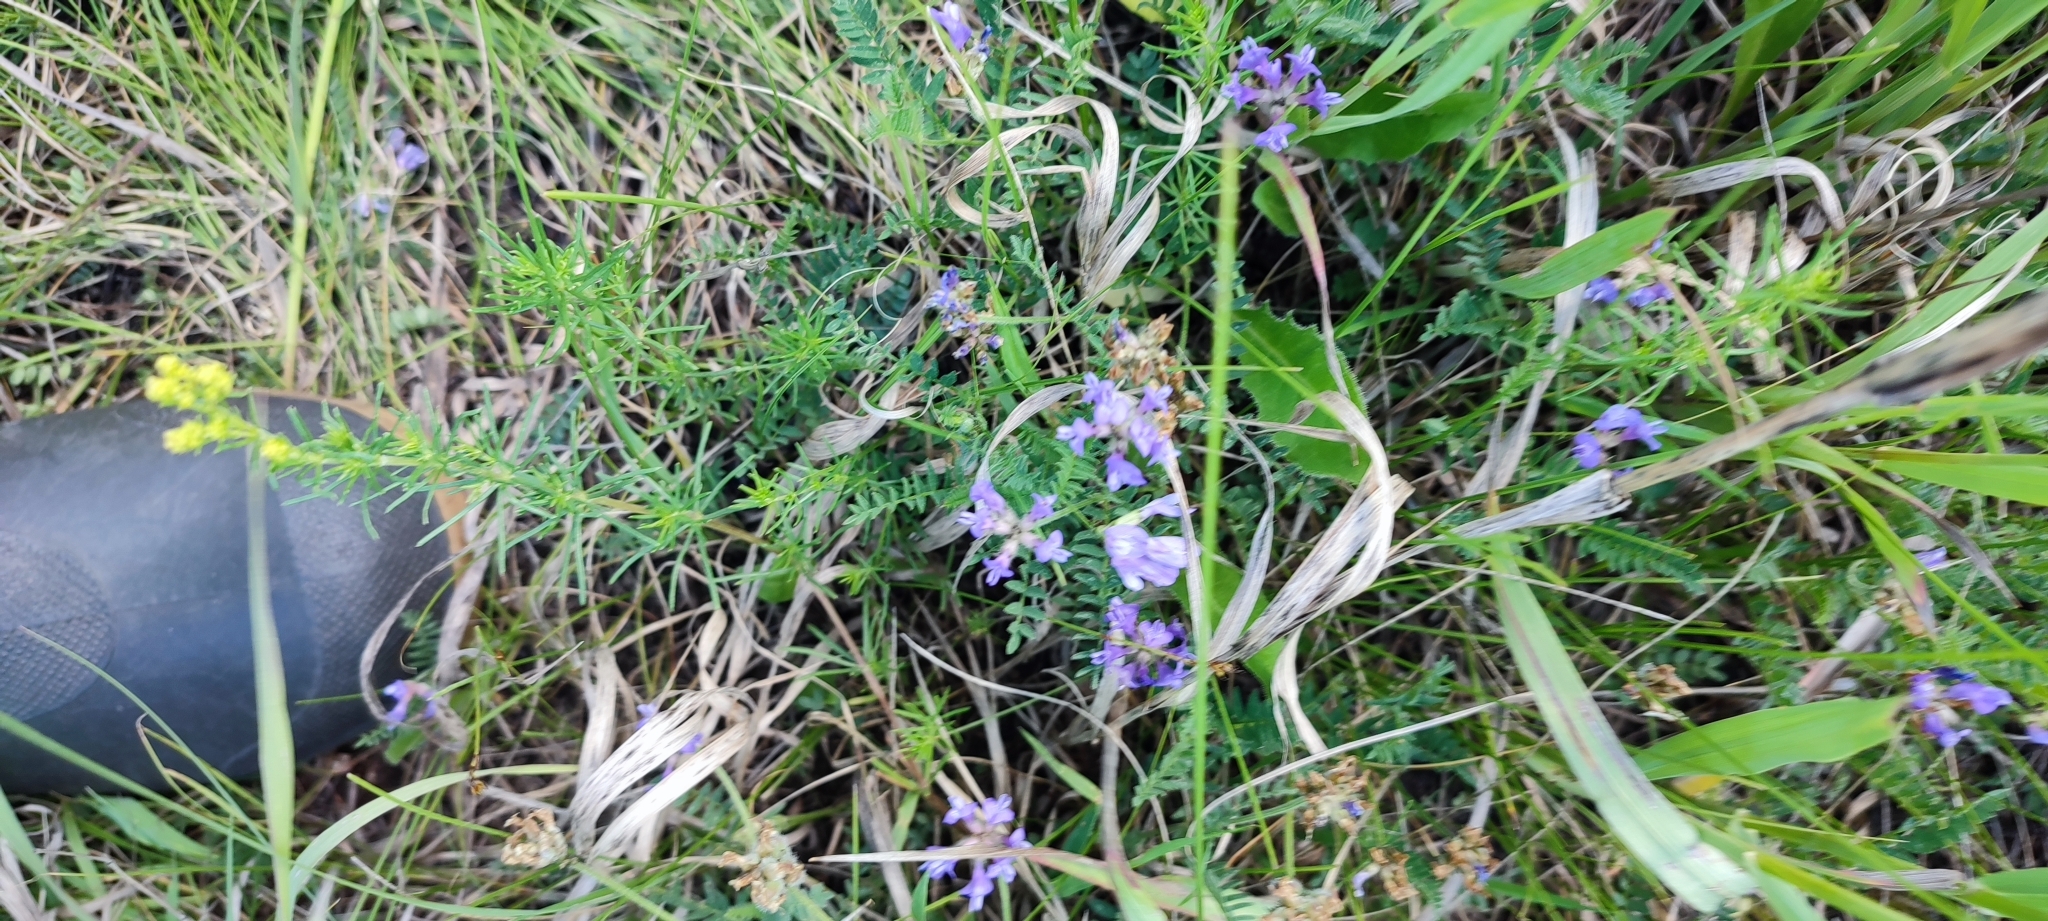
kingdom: Plantae
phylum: Tracheophyta
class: Magnoliopsida
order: Fabales
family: Fabaceae
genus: Astragalus
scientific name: Astragalus danicus
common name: Purple milk-vetch
